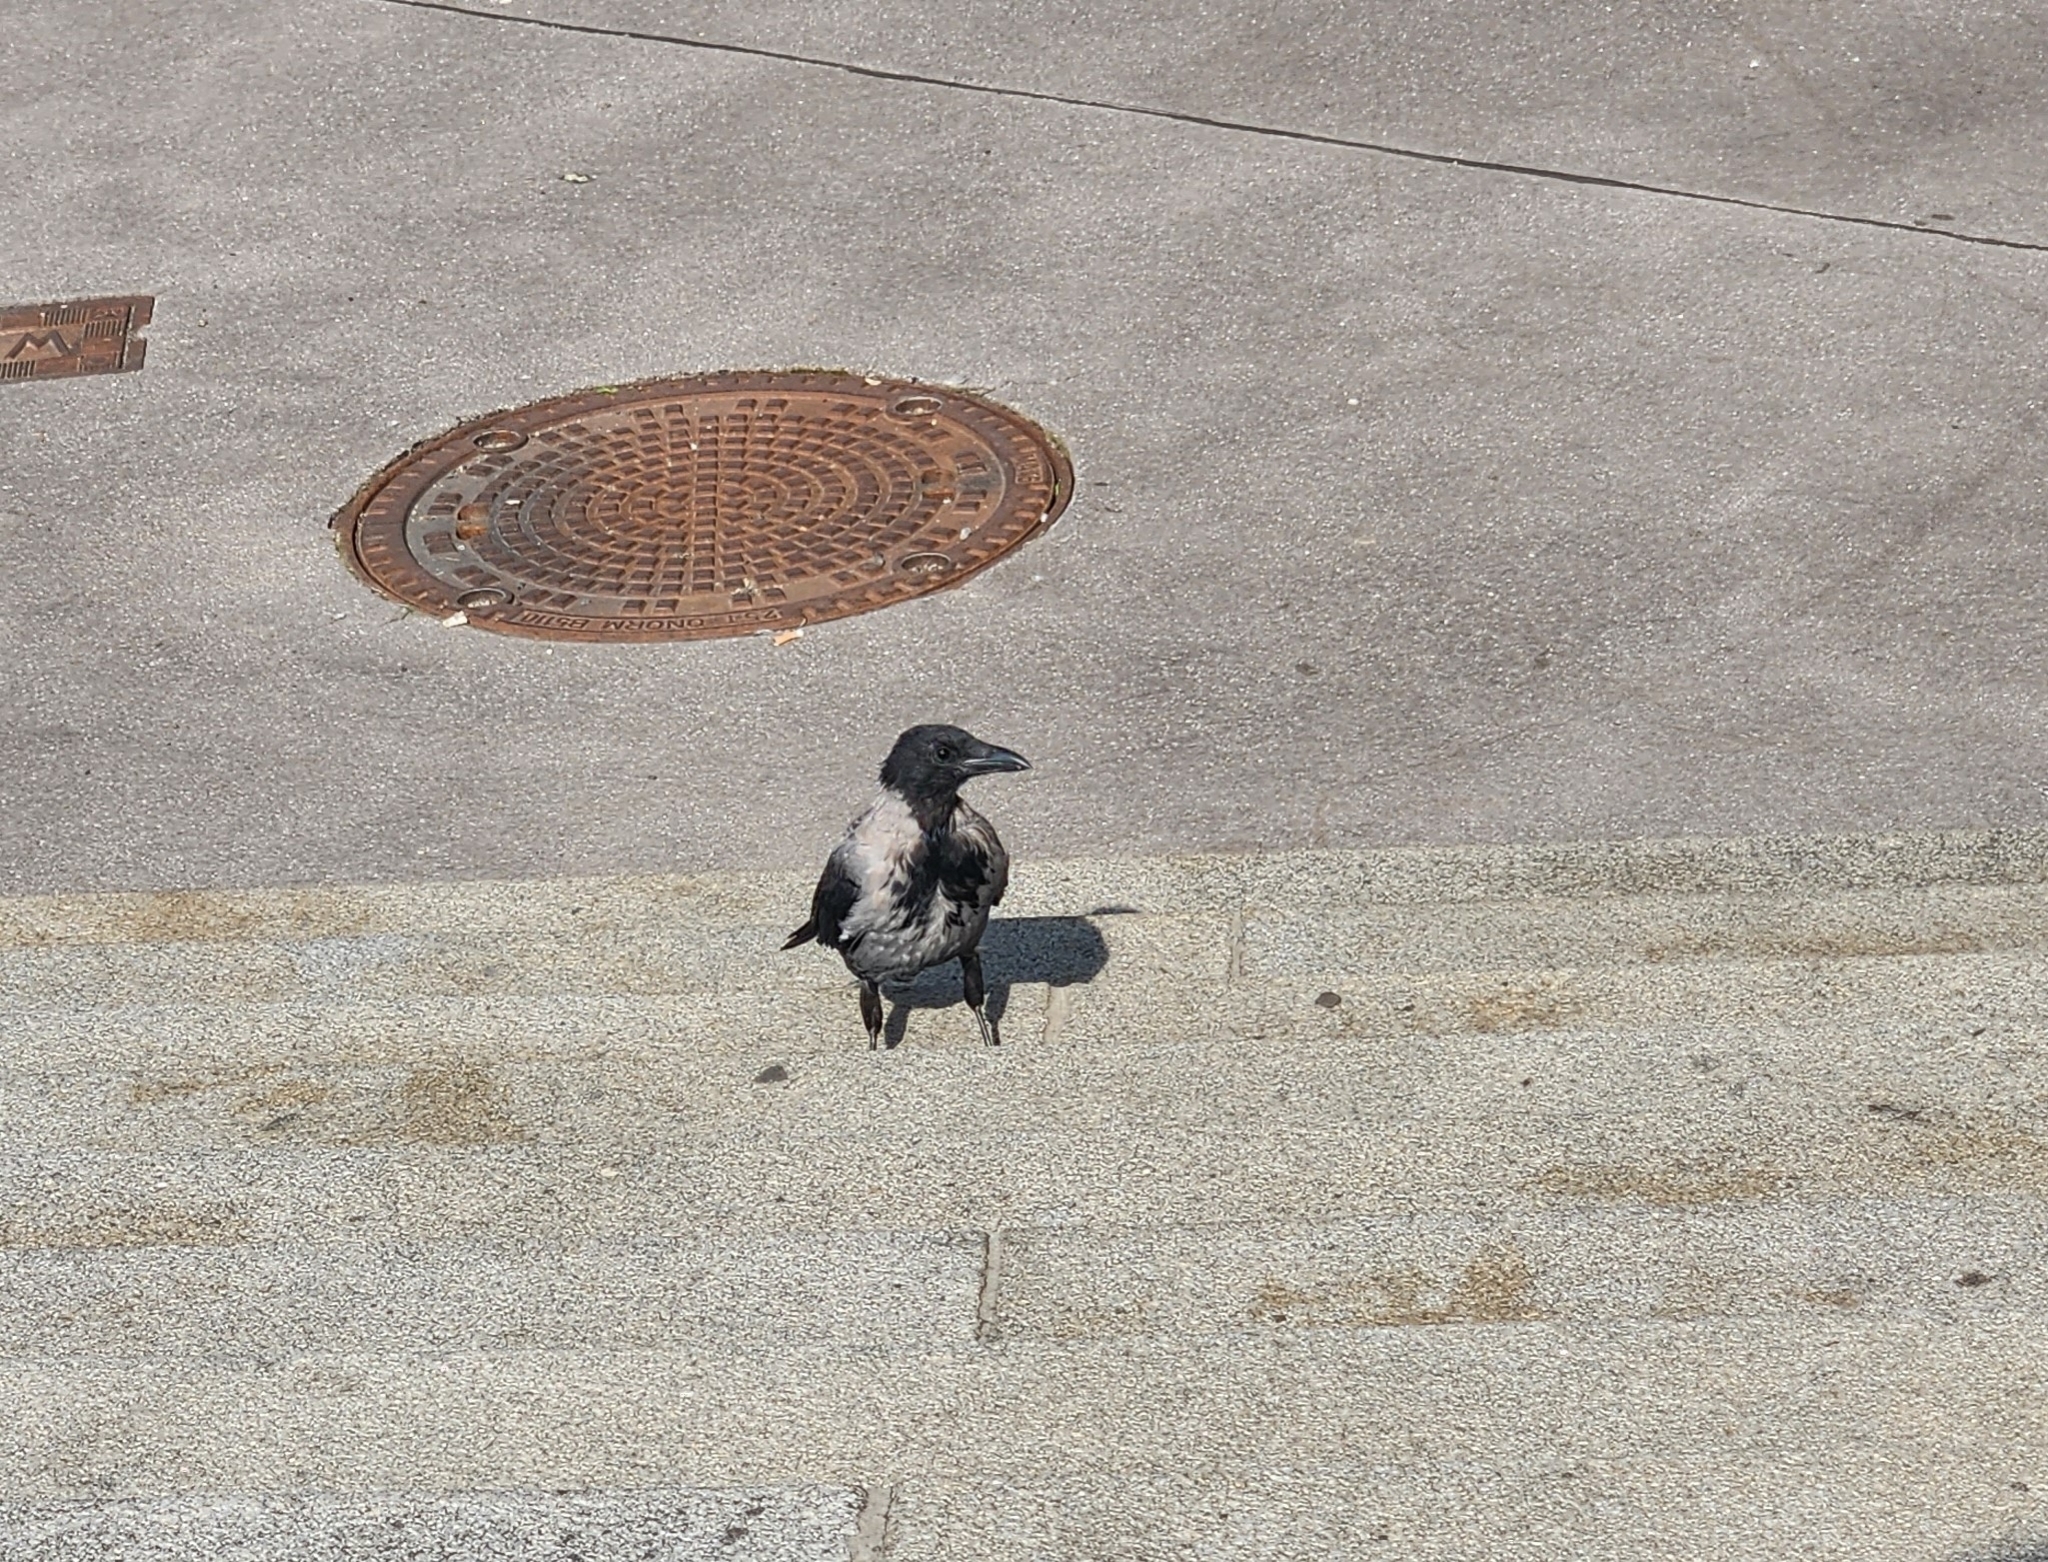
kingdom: Animalia
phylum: Chordata
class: Aves
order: Passeriformes
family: Corvidae
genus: Corvus
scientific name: Corvus cornix
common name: Hooded crow
